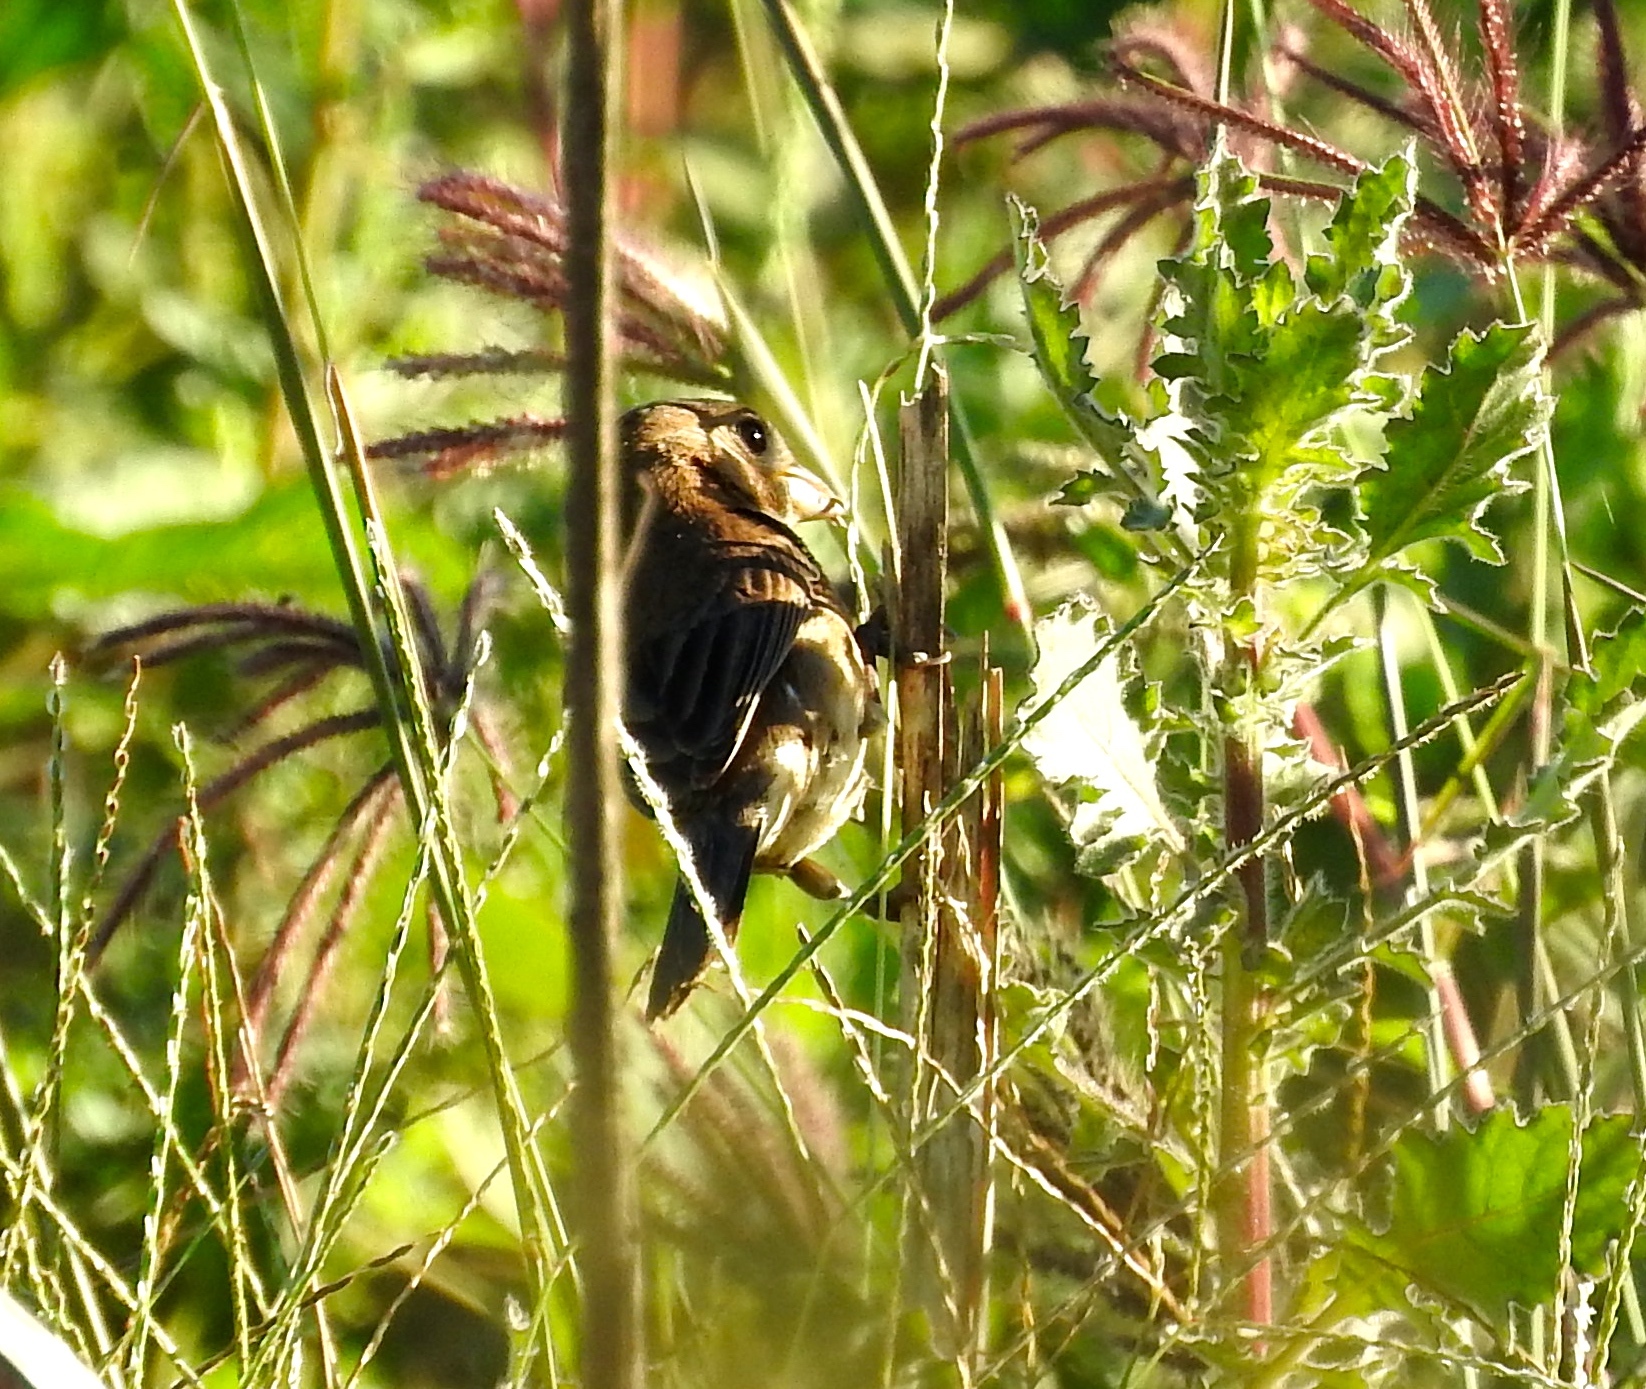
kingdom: Animalia
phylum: Chordata
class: Aves
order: Passeriformes
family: Thraupidae
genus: Sporophila
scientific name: Sporophila torqueola
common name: White-collared seedeater
